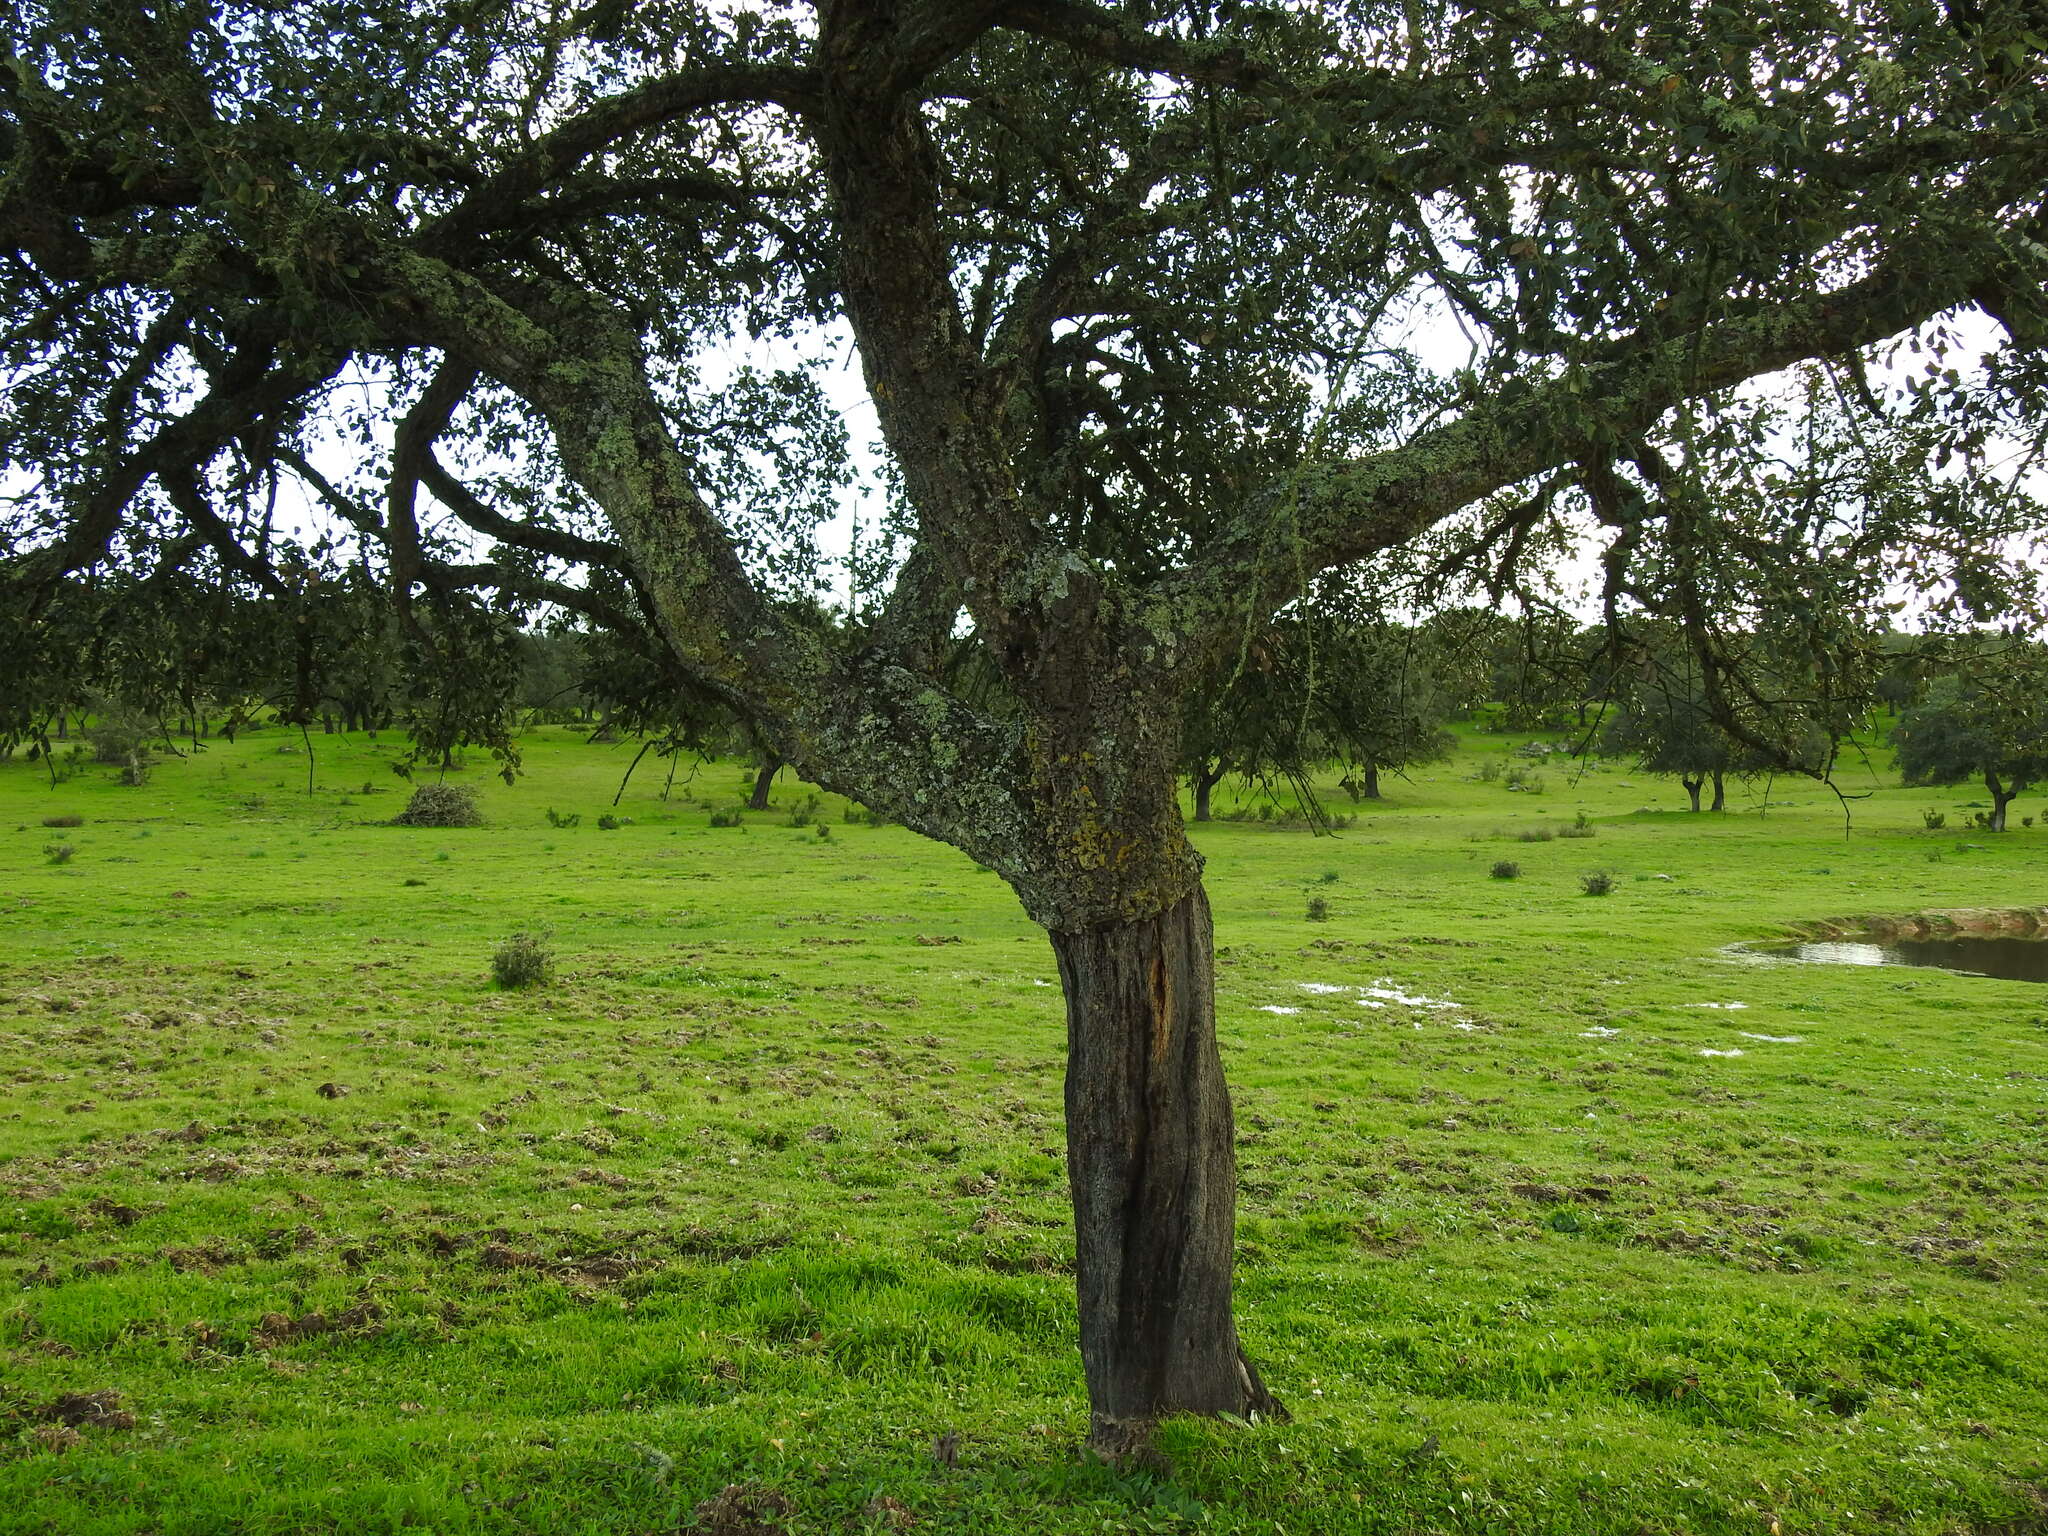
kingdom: Plantae
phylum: Tracheophyta
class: Magnoliopsida
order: Fagales
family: Fagaceae
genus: Quercus
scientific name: Quercus suber
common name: Cork oak
